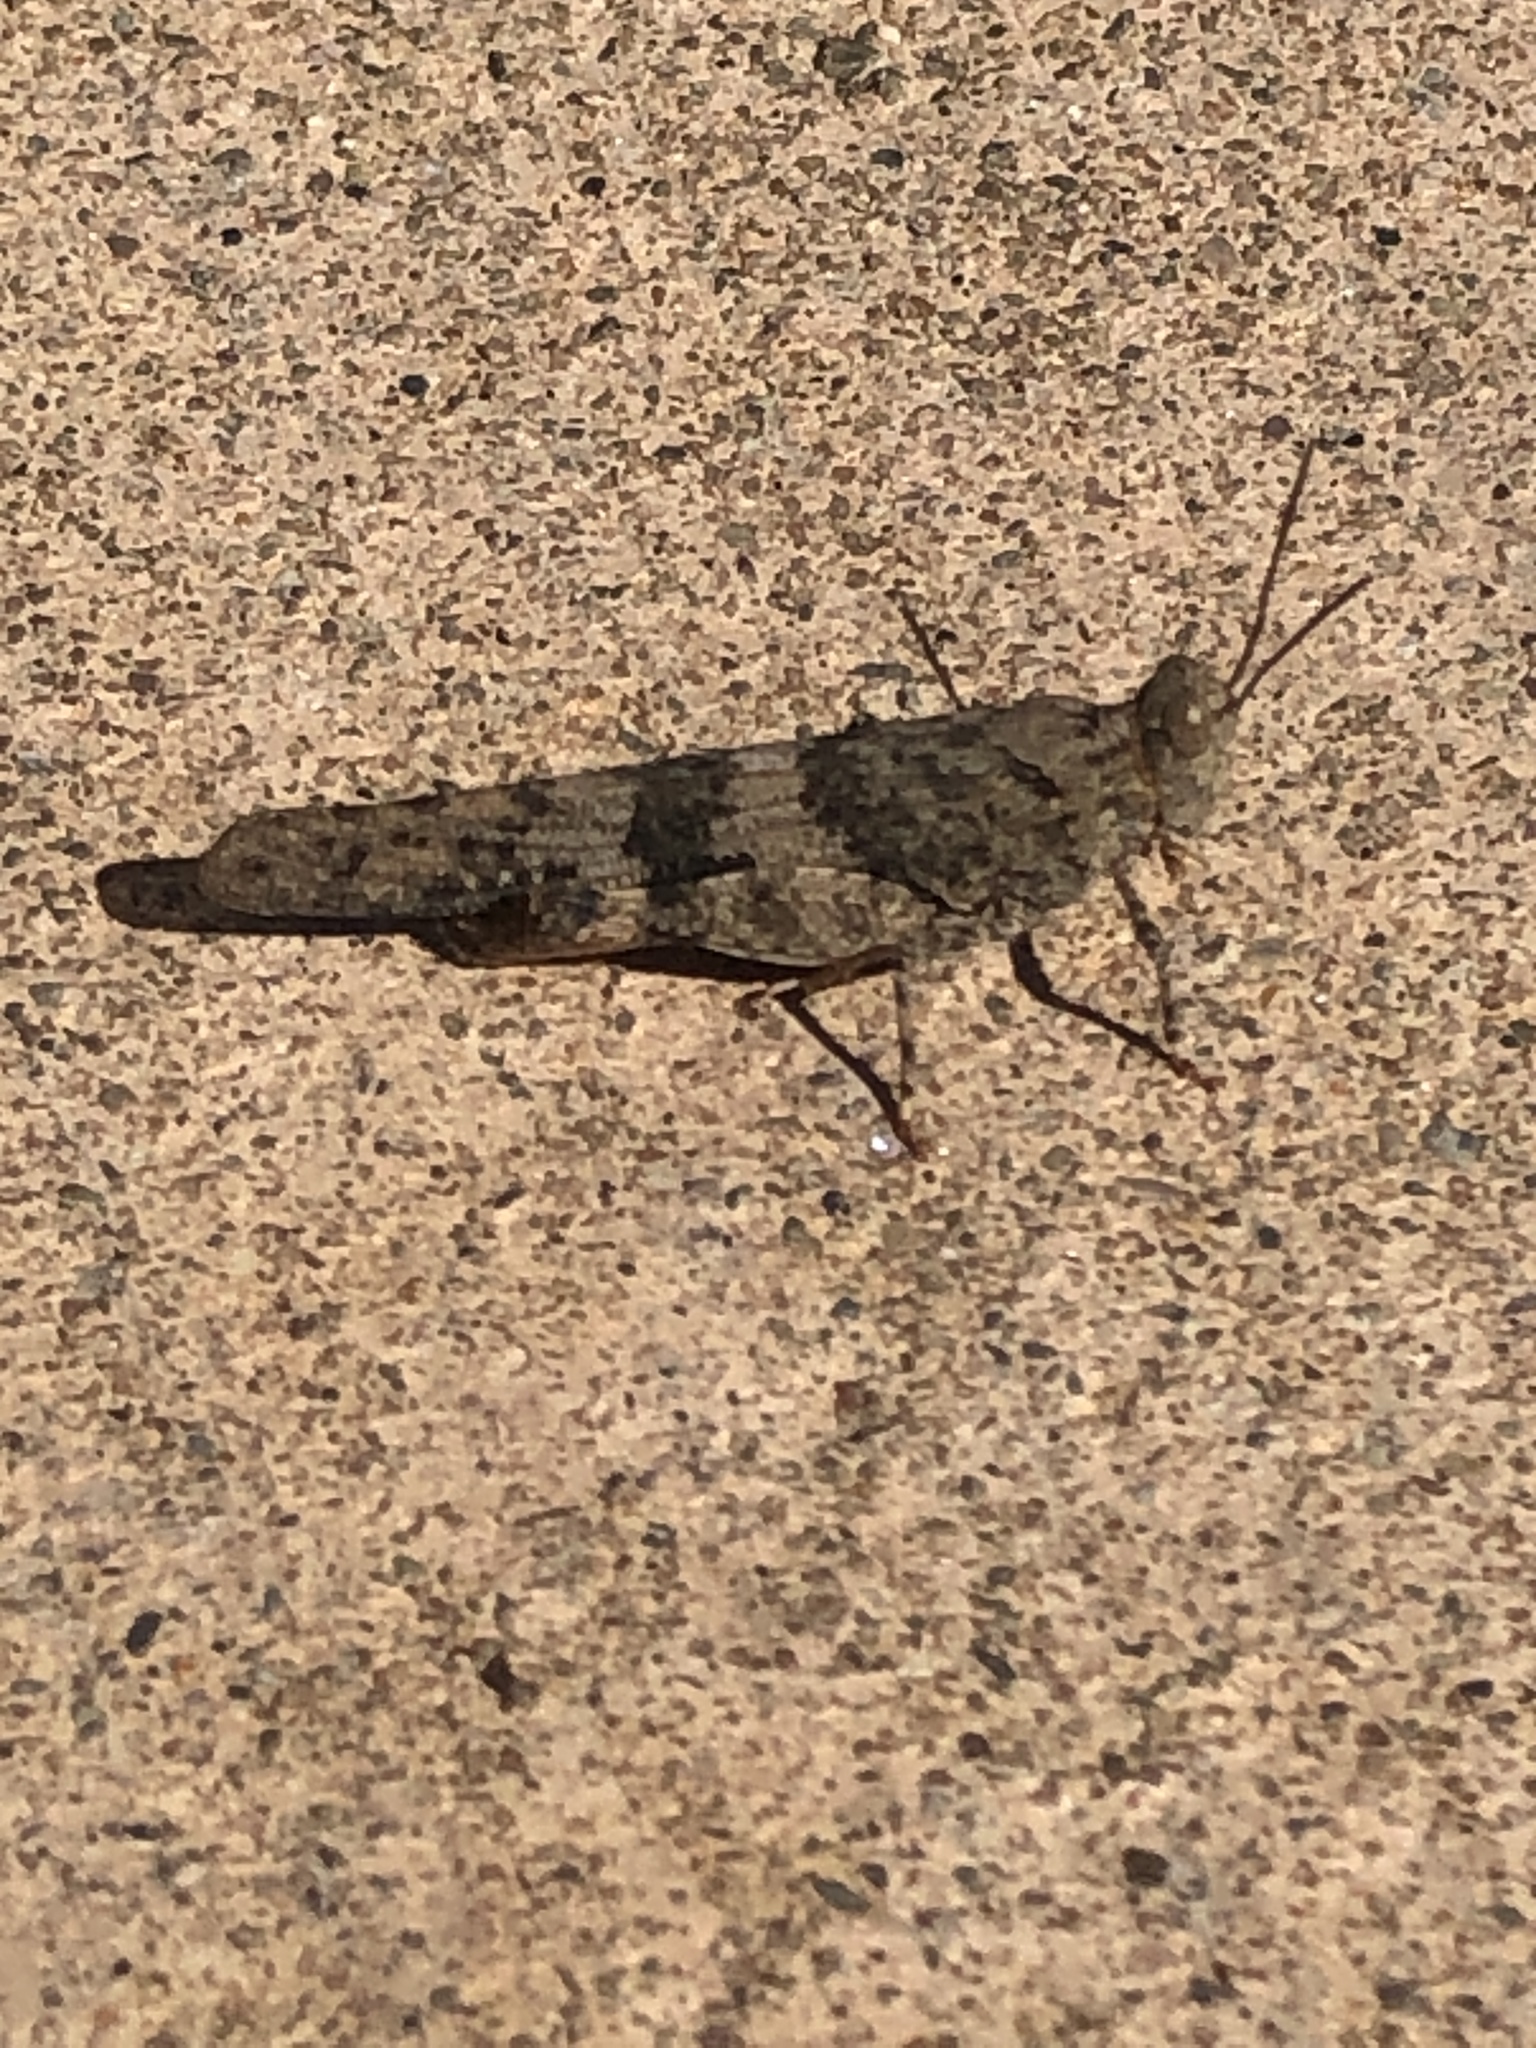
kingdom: Animalia
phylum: Arthropoda
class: Insecta
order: Orthoptera
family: Acrididae
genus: Trimerotropis
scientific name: Trimerotropis pallidipennis
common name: Pallid-winged grasshopper
